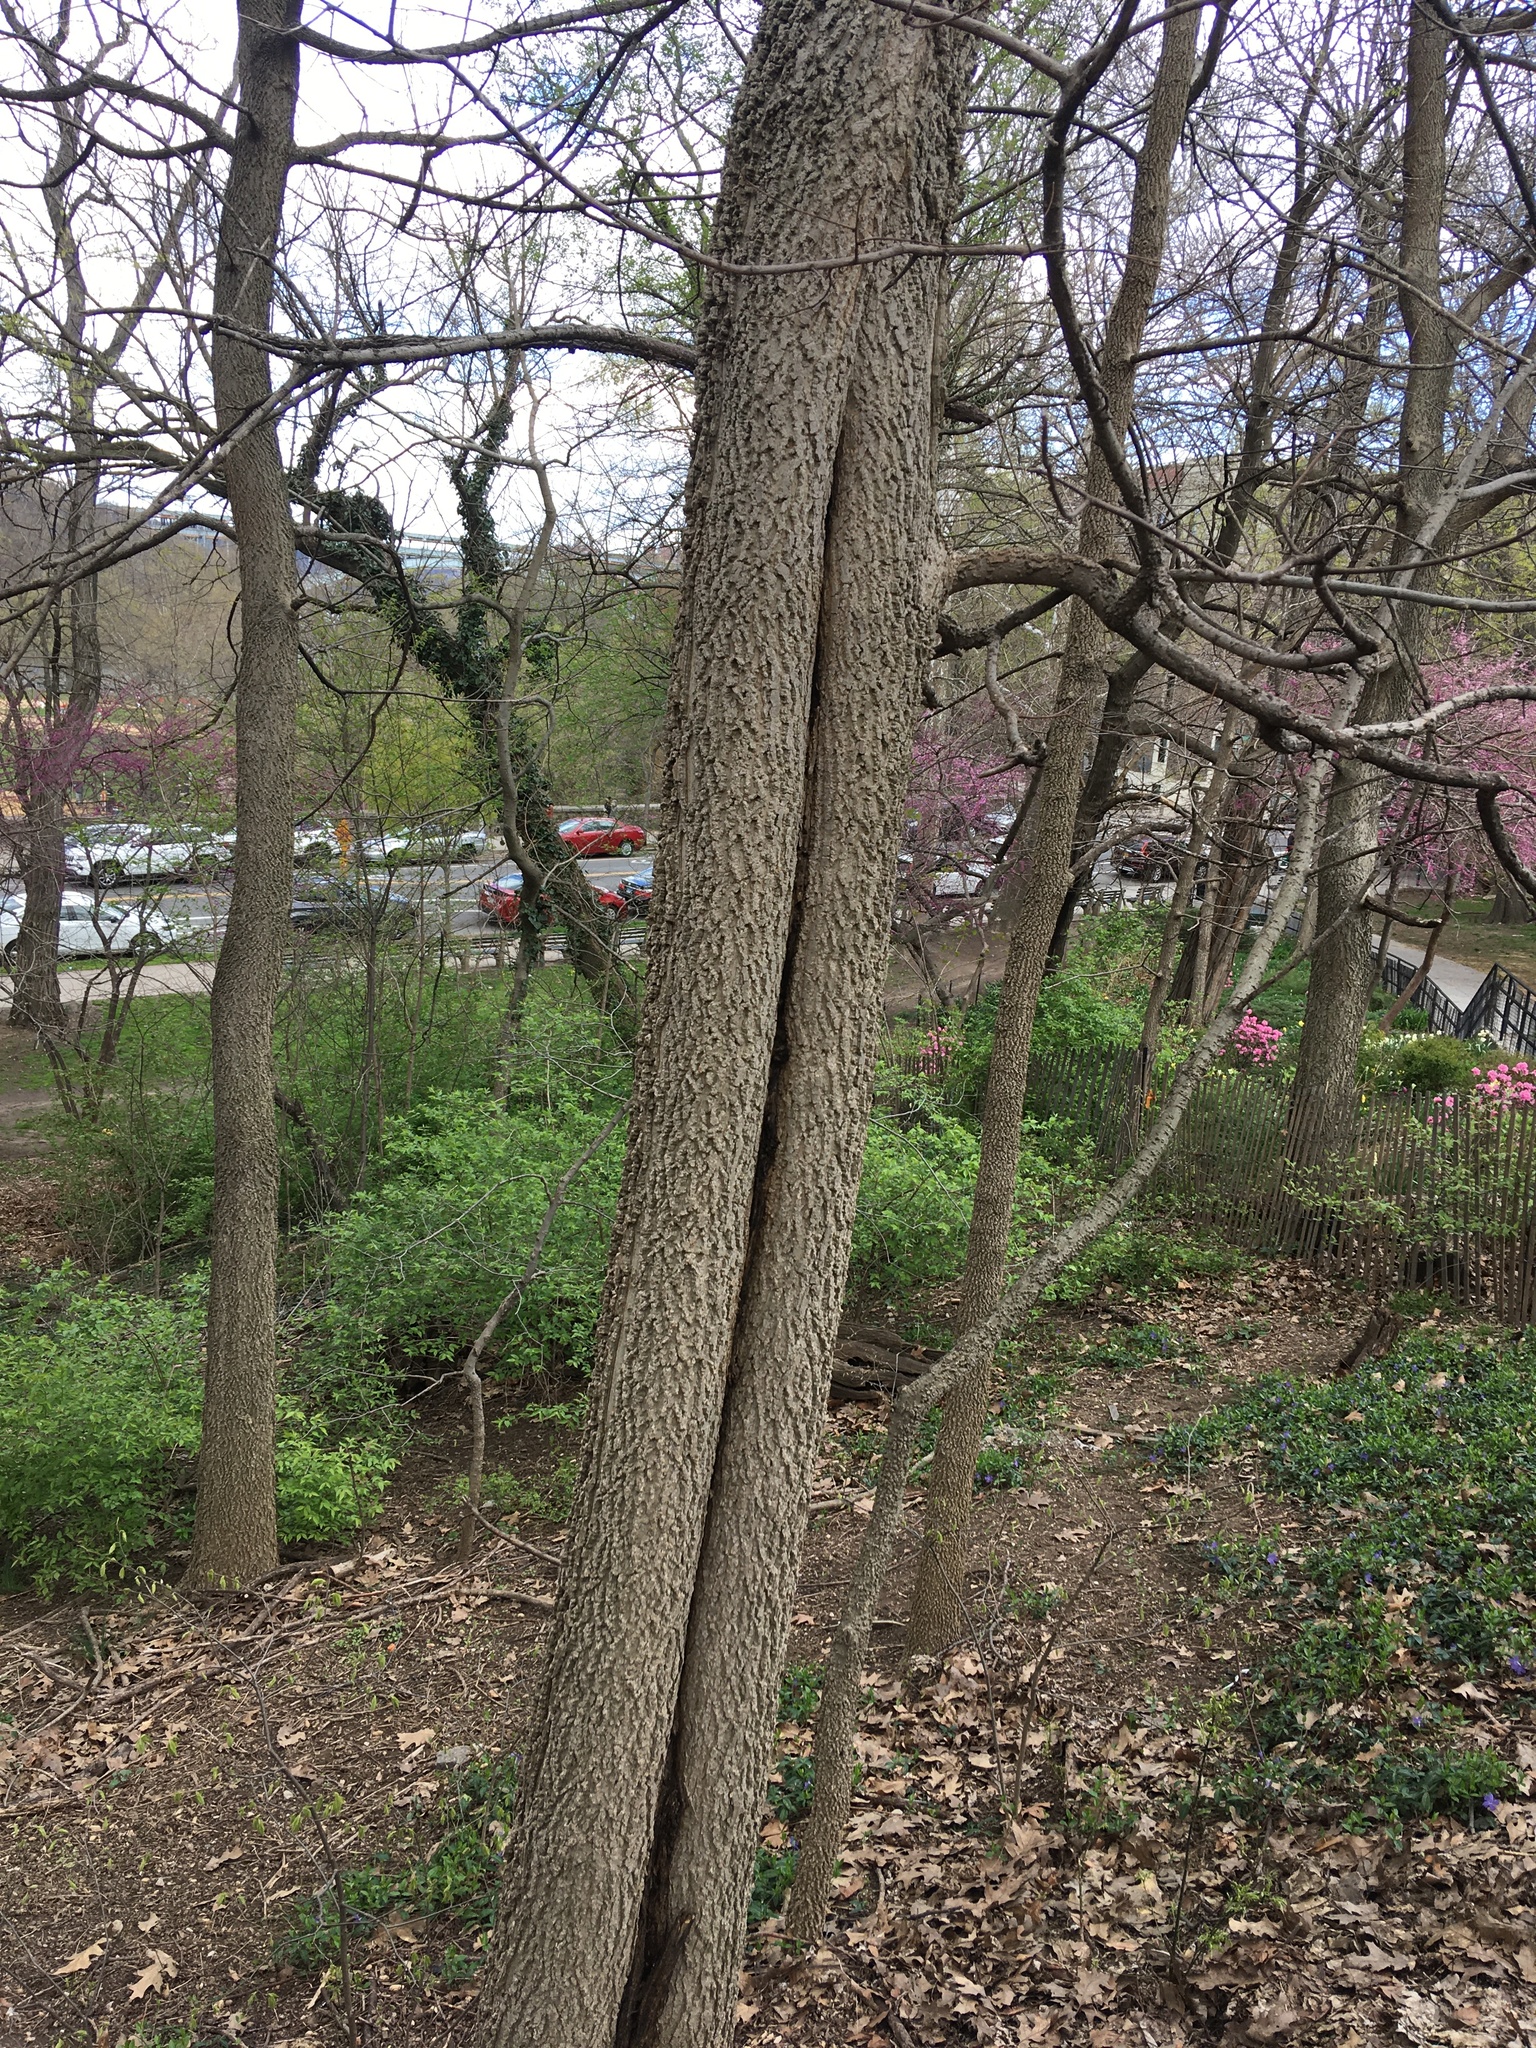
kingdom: Plantae
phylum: Tracheophyta
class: Magnoliopsida
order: Rosales
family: Cannabaceae
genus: Celtis
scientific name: Celtis occidentalis
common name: Common hackberry
